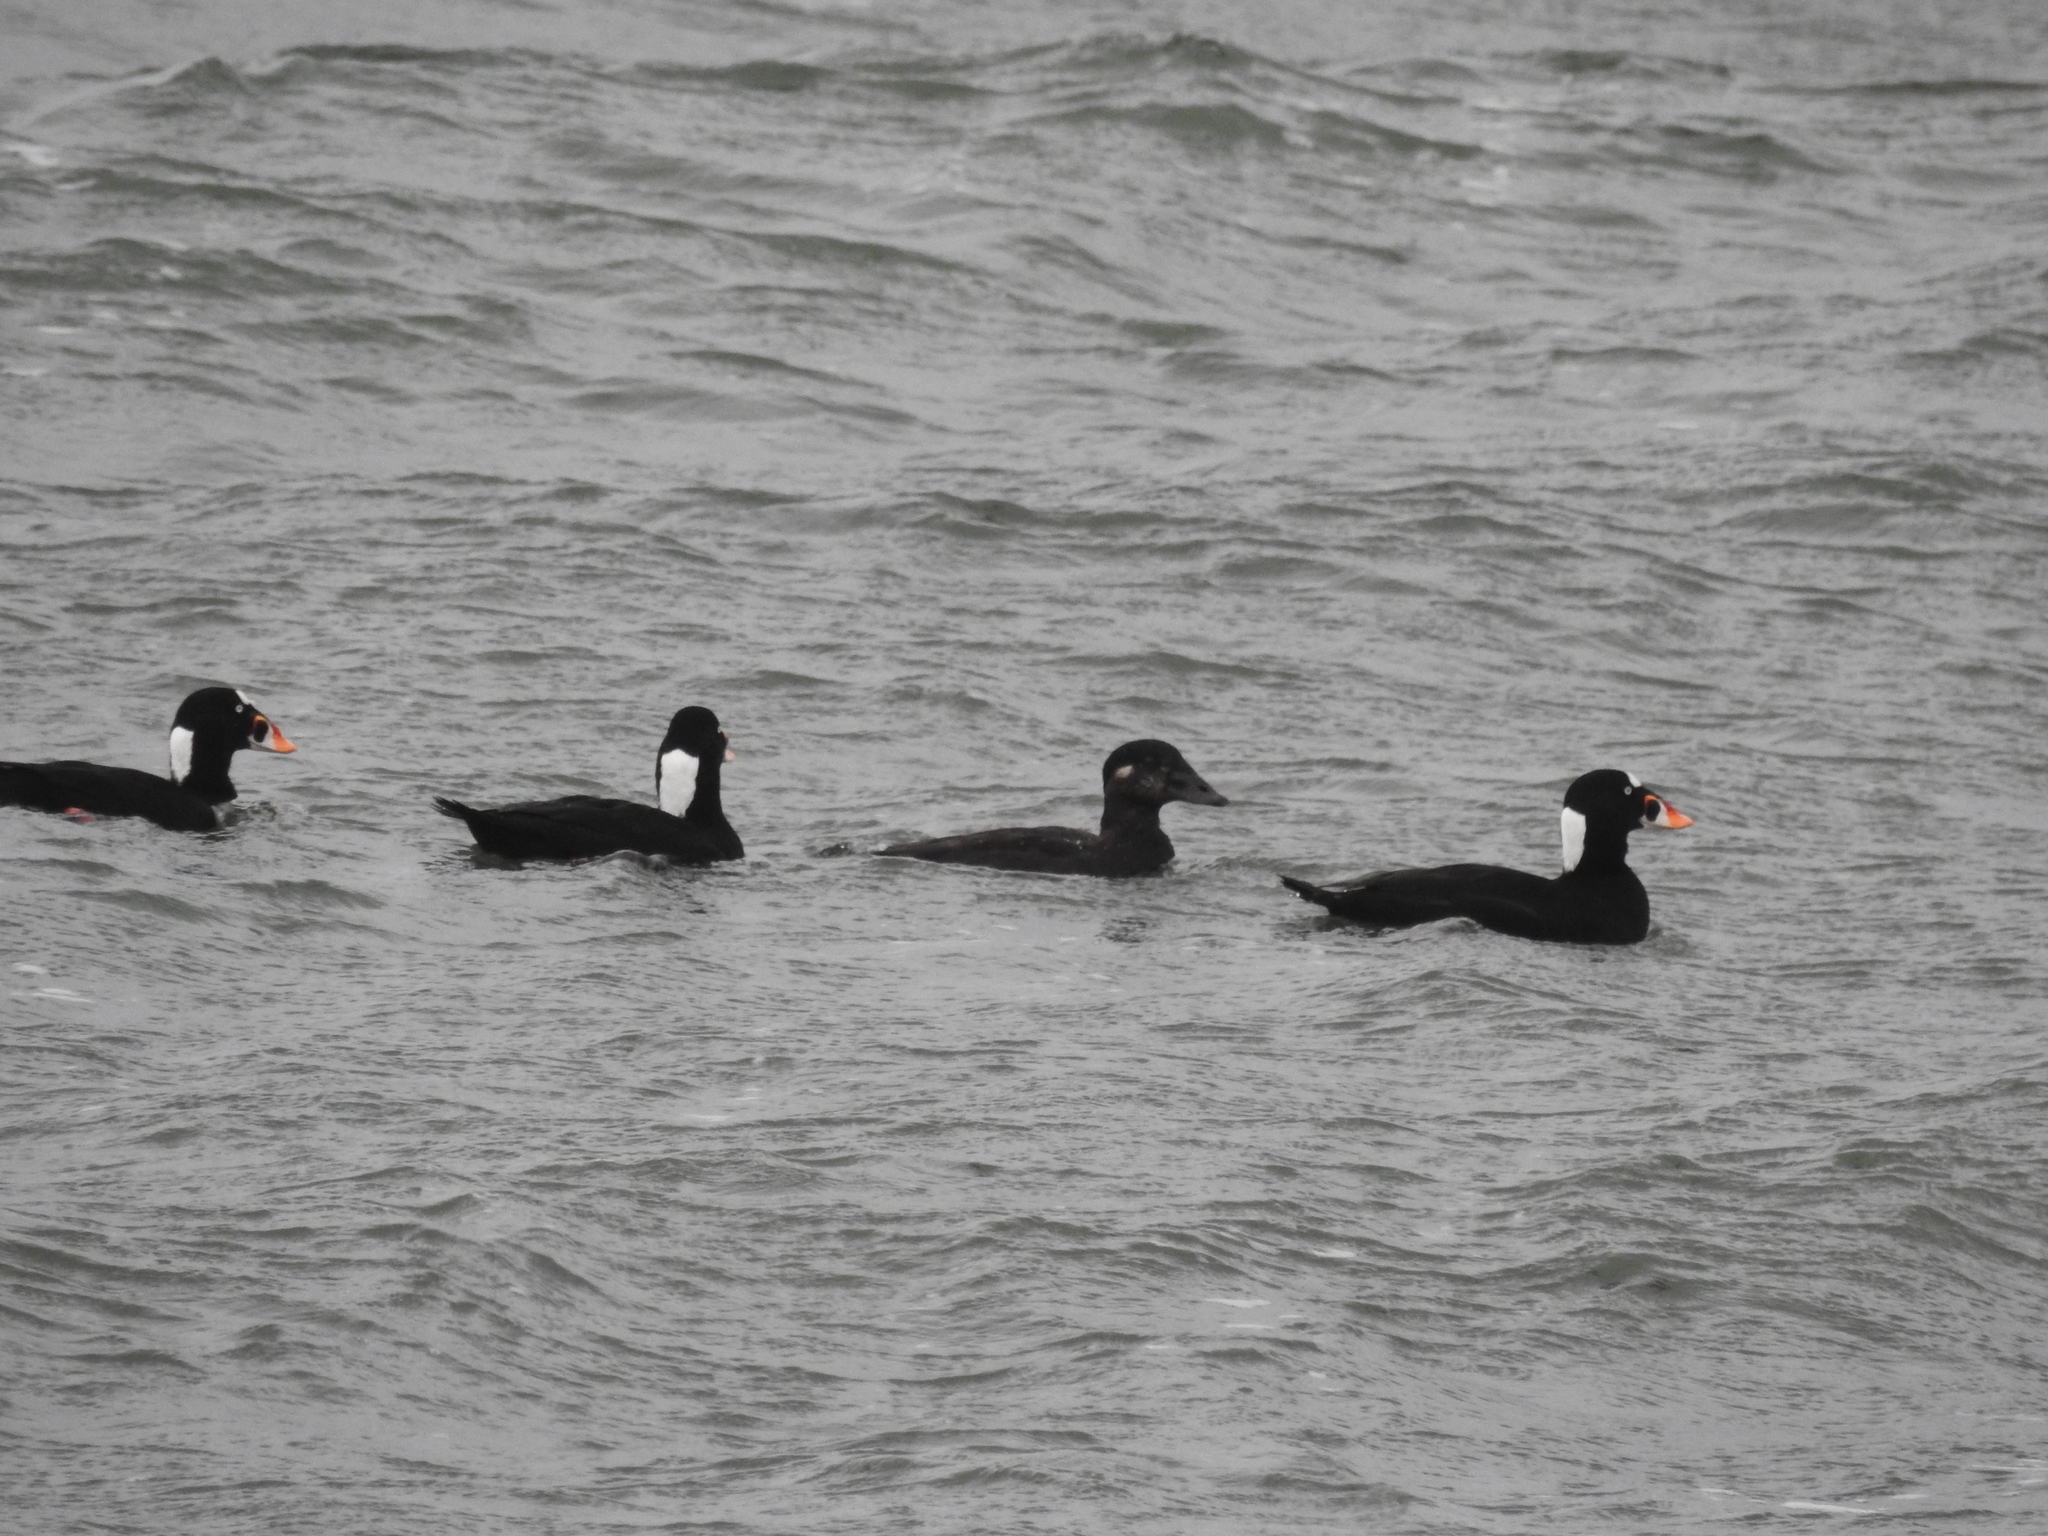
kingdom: Animalia
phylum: Chordata
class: Aves
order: Anseriformes
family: Anatidae
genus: Melanitta
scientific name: Melanitta perspicillata
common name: Surf scoter
